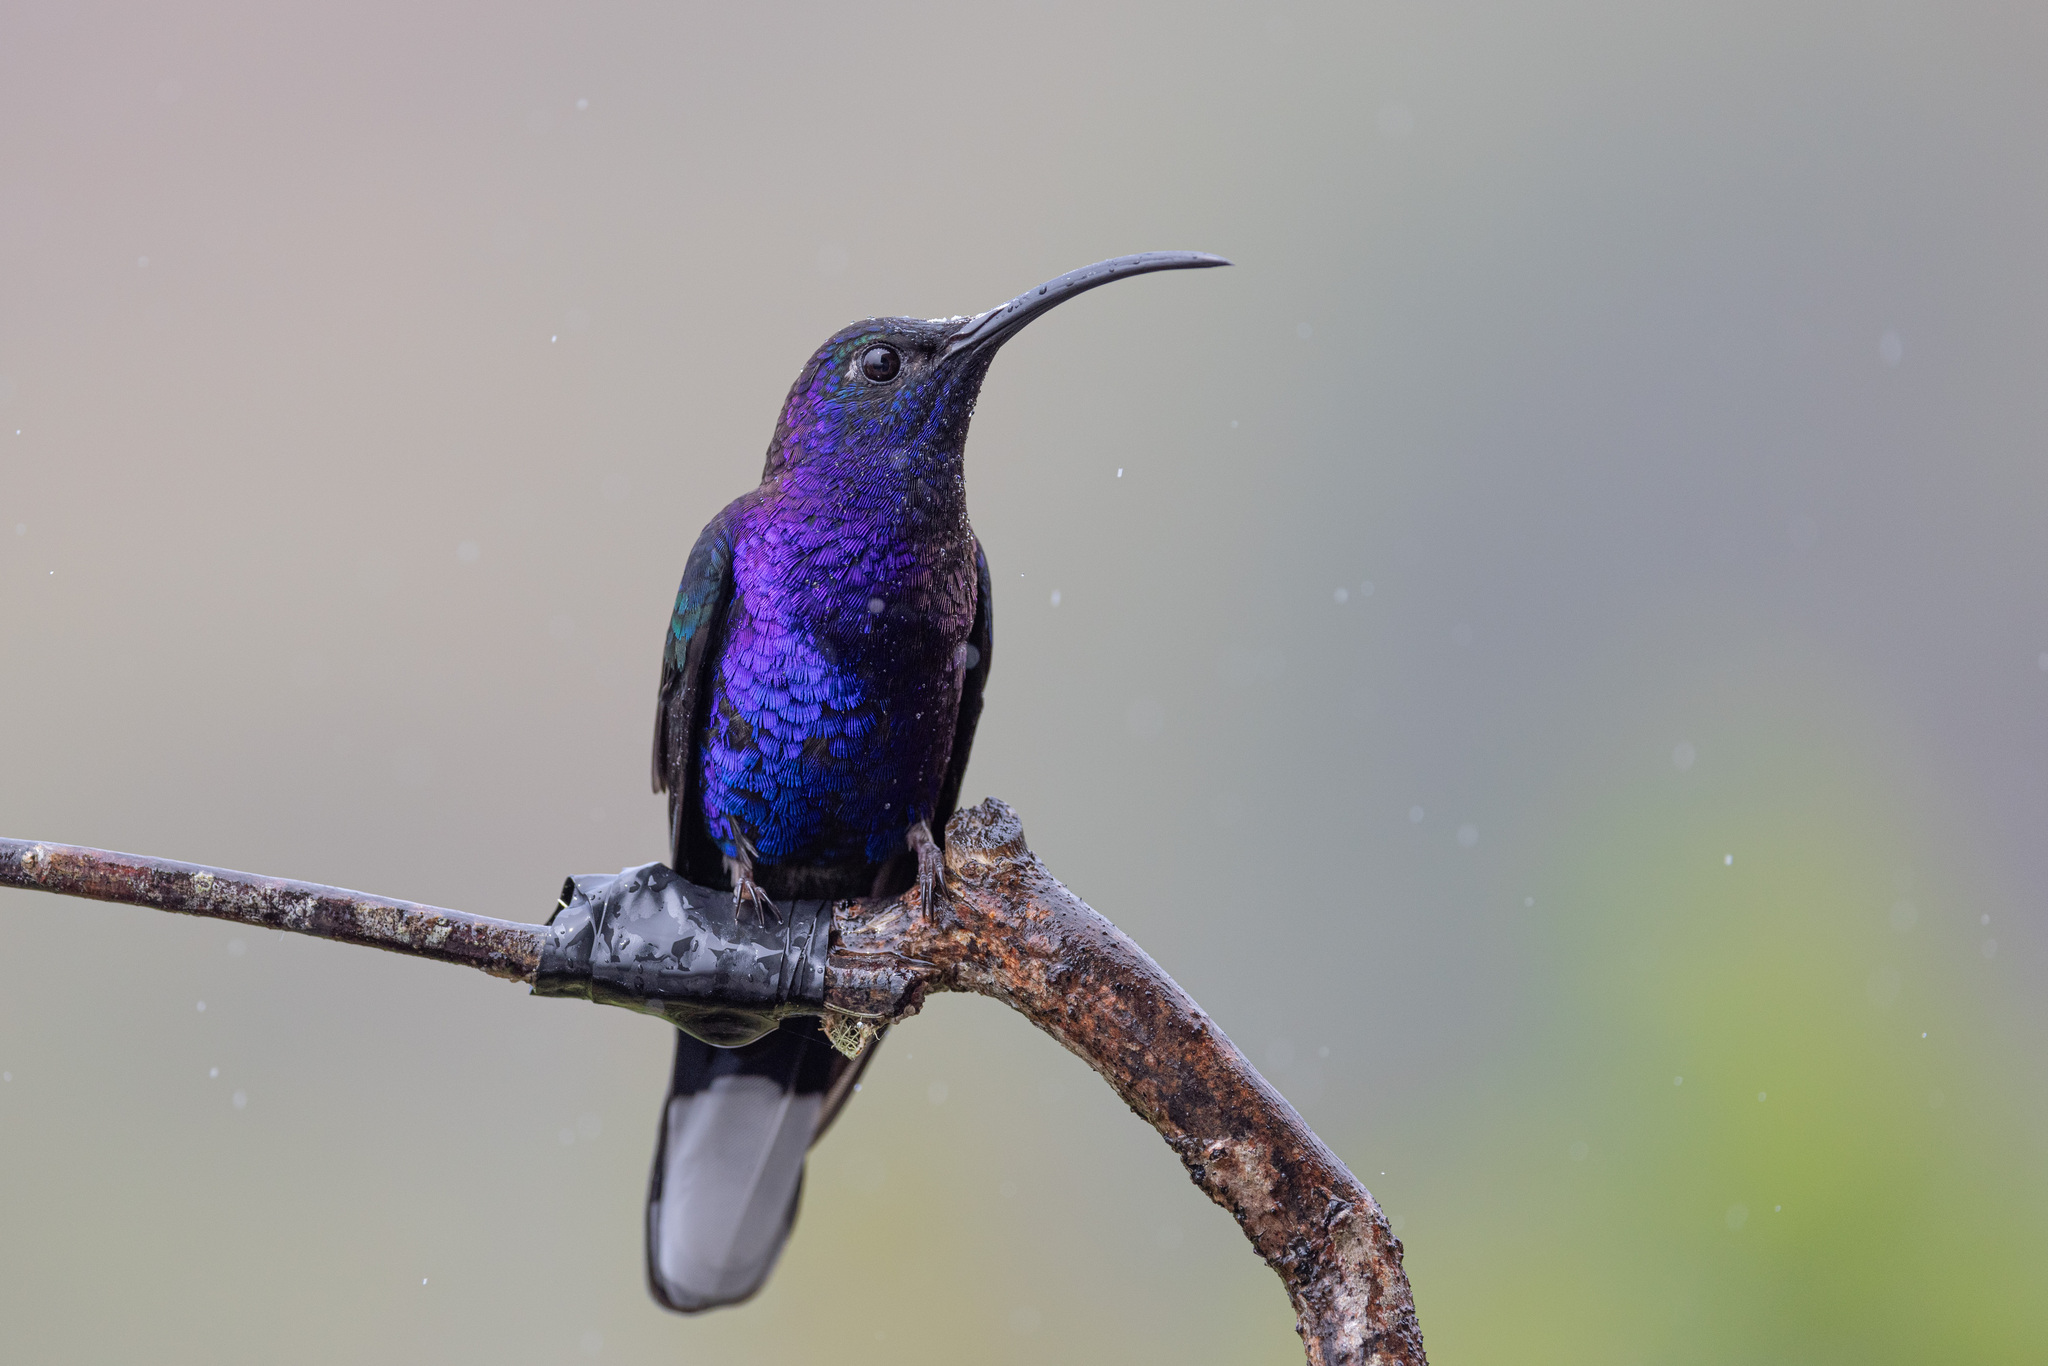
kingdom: Animalia
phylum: Chordata
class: Aves
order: Apodiformes
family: Trochilidae
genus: Campylopterus
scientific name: Campylopterus hemileucurus
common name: Violet sabrewing
